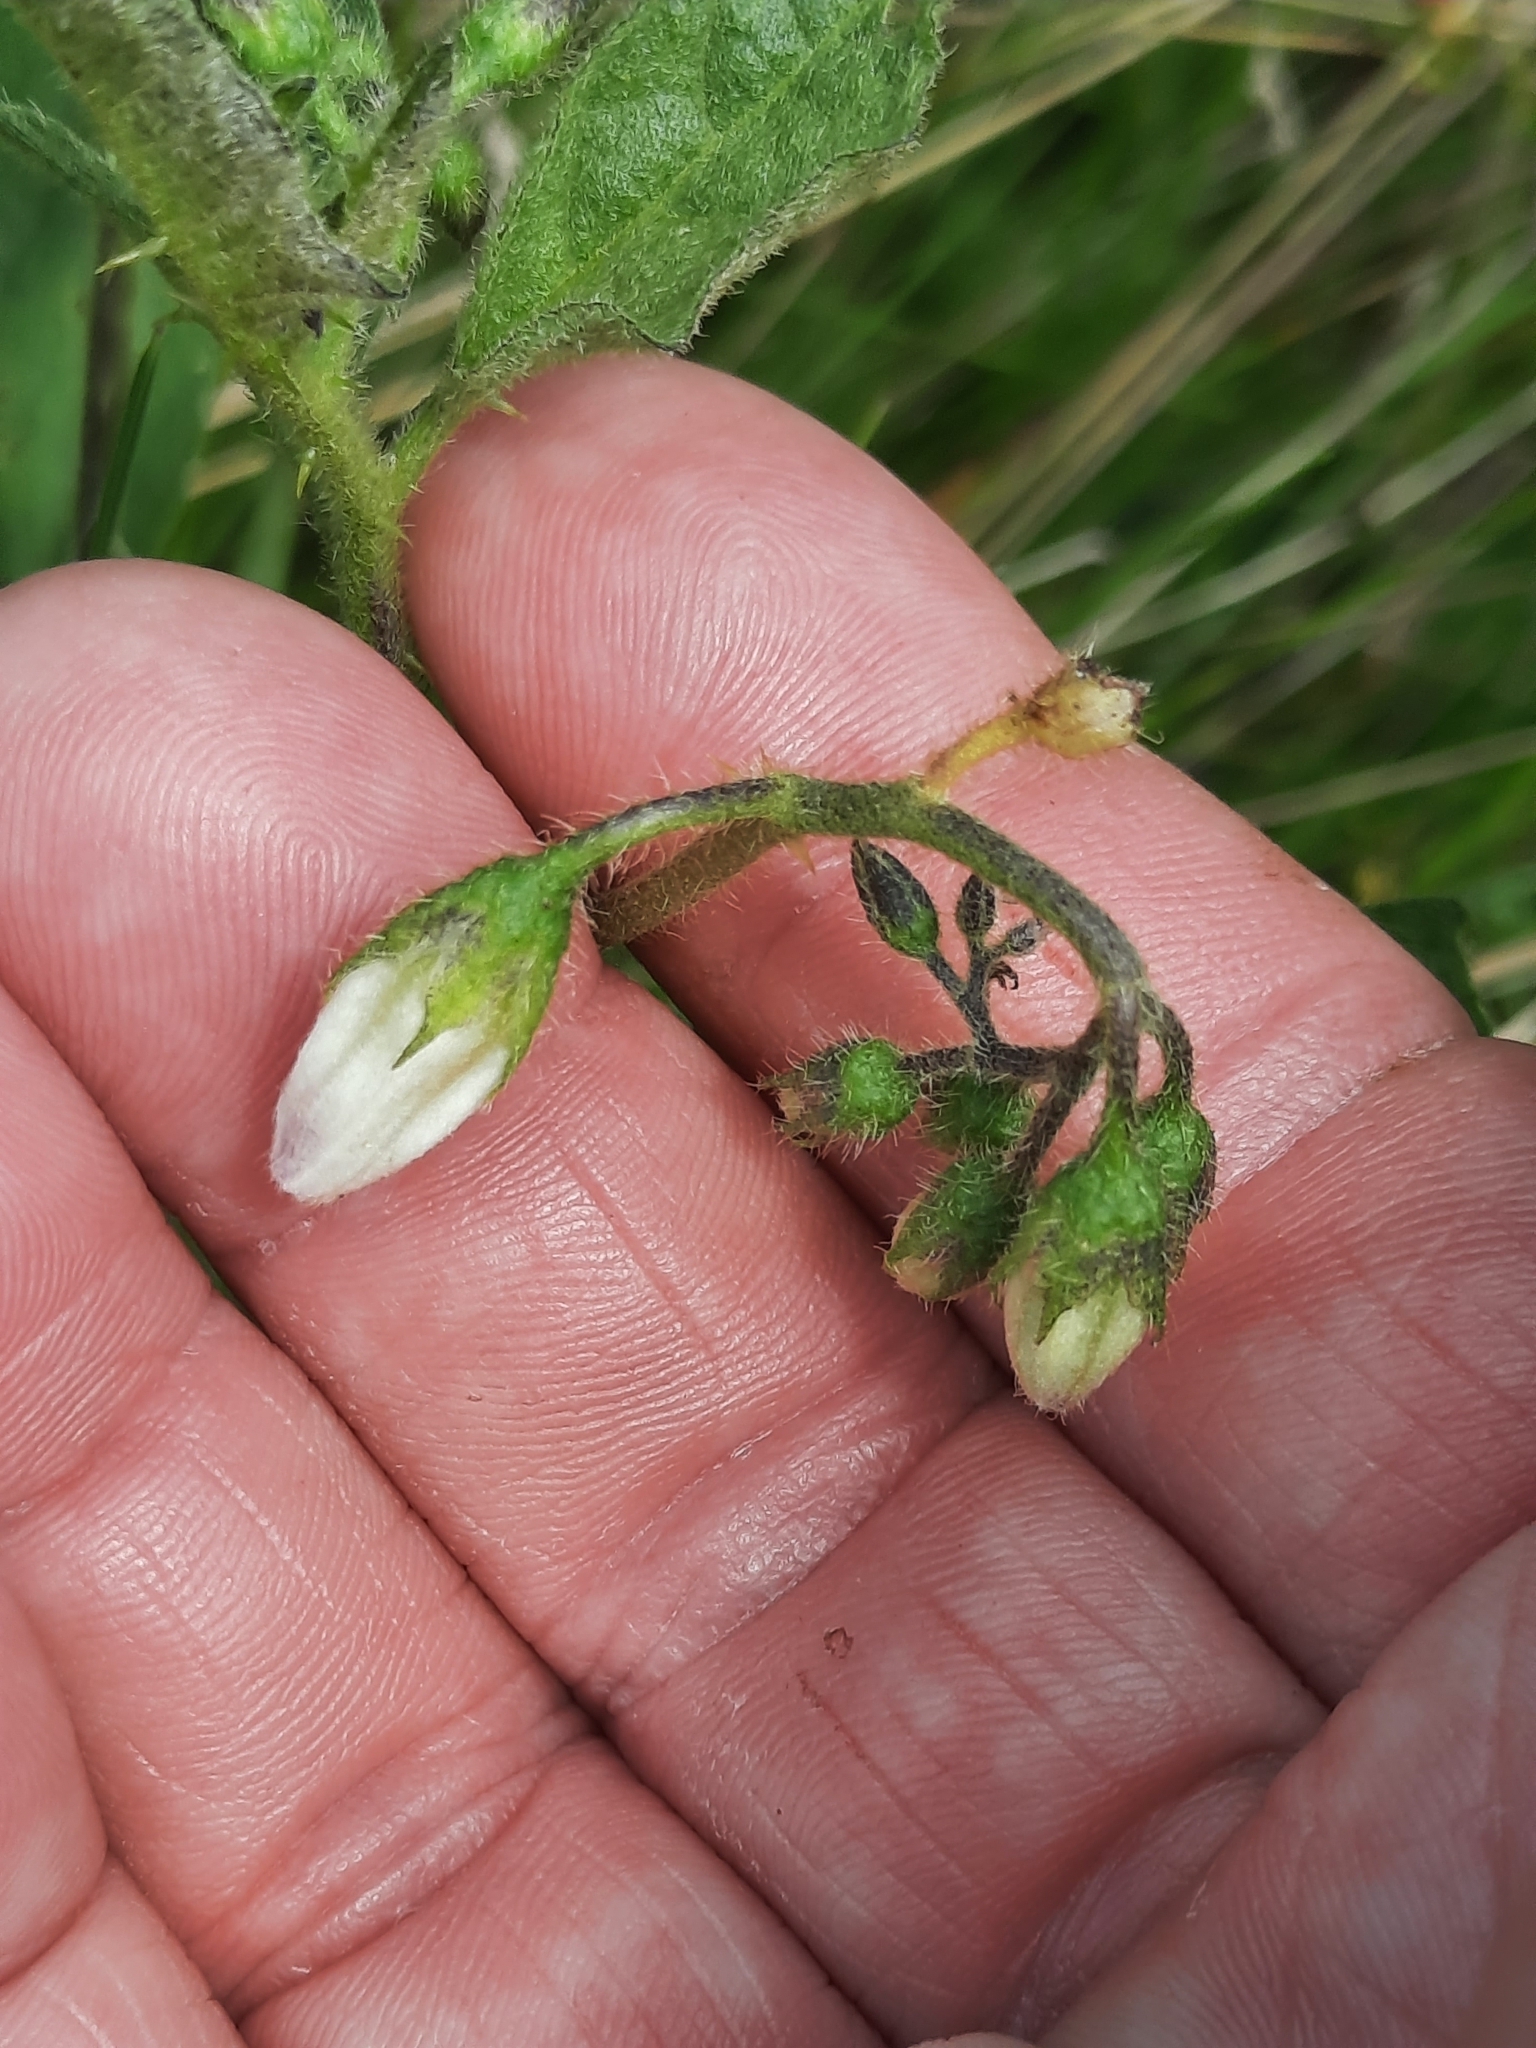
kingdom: Plantae
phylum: Tracheophyta
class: Magnoliopsida
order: Solanales
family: Solanaceae
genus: Solanum
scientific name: Solanum carolinense
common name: Horse-nettle
